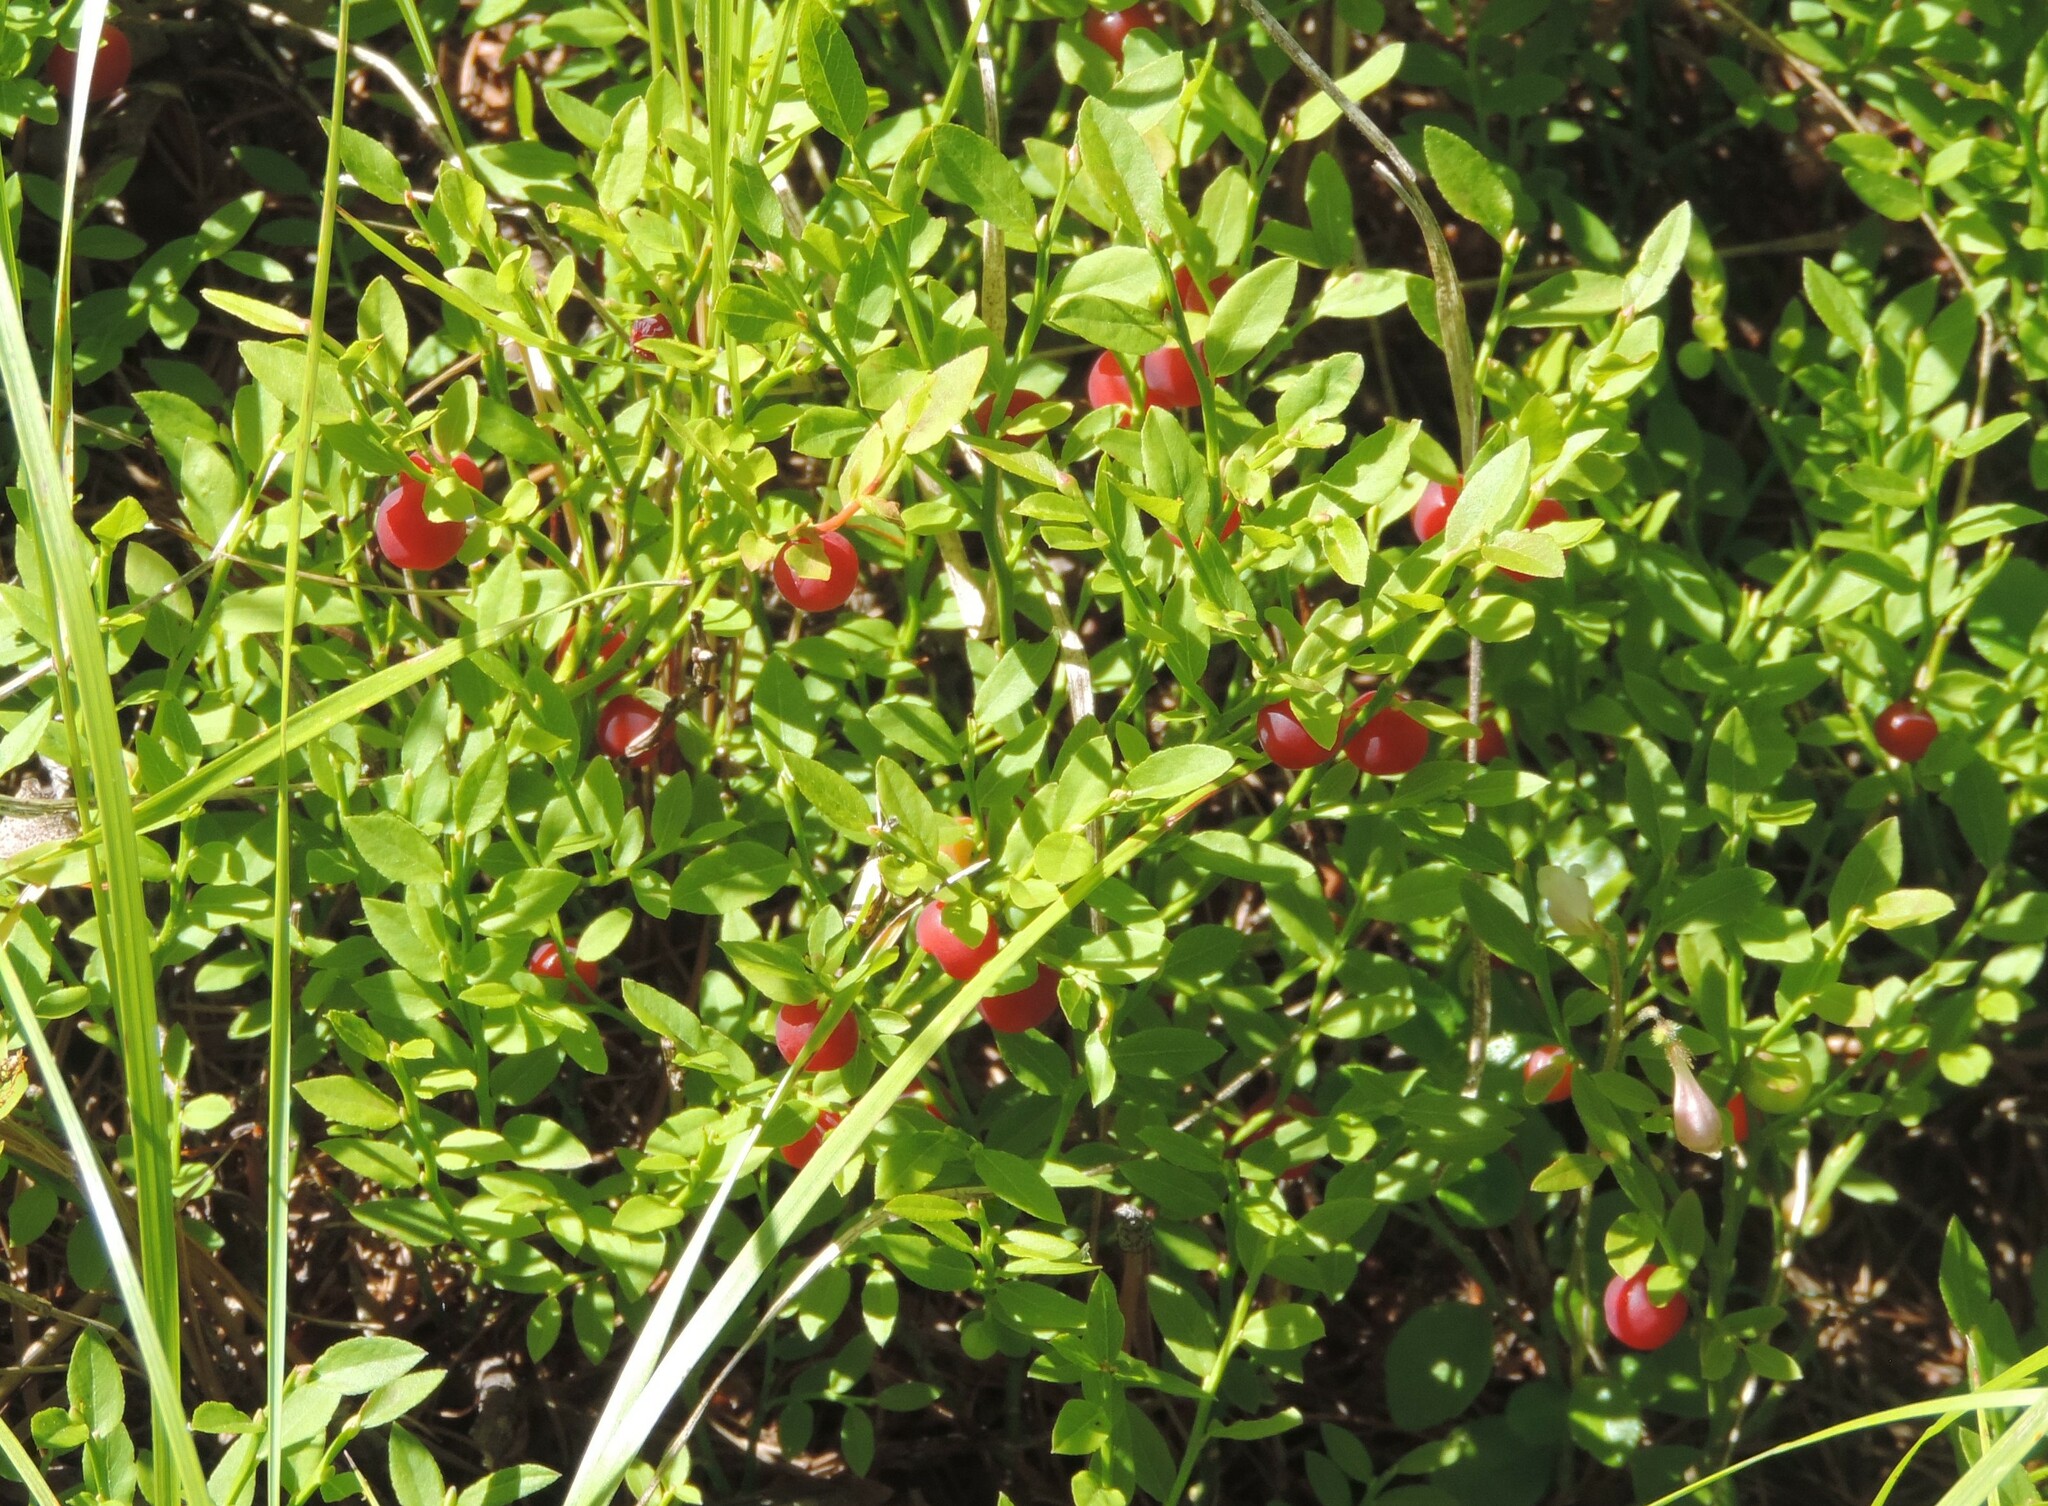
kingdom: Plantae
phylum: Tracheophyta
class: Magnoliopsida
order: Ericales
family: Ericaceae
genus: Vaccinium
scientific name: Vaccinium scoparium
